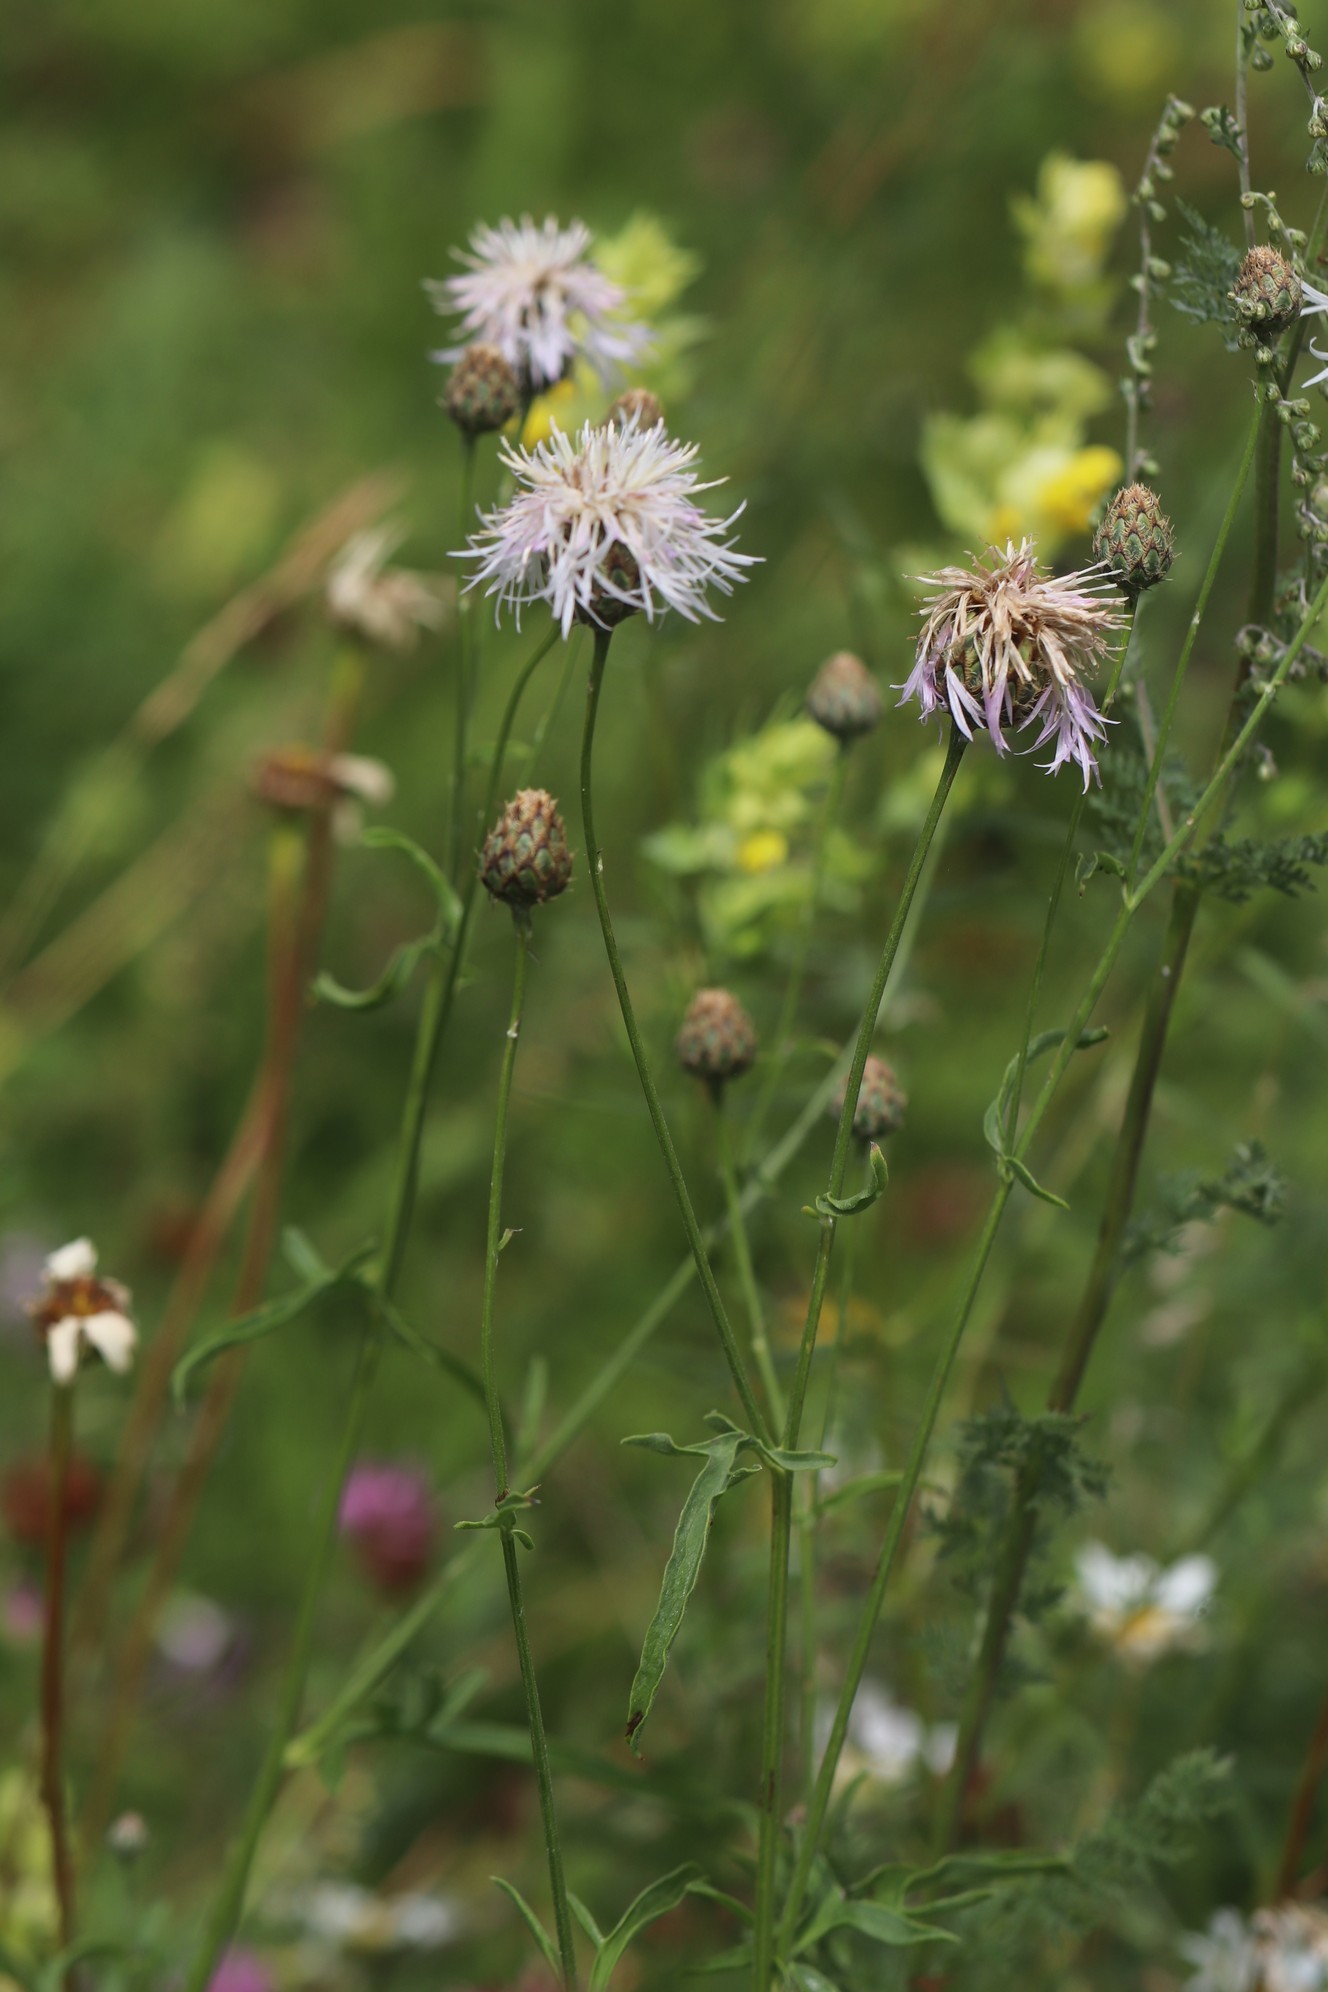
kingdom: Plantae
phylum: Tracheophyta
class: Magnoliopsida
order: Asterales
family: Asteraceae
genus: Centaurea
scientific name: Centaurea scabiosa
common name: Greater knapweed
